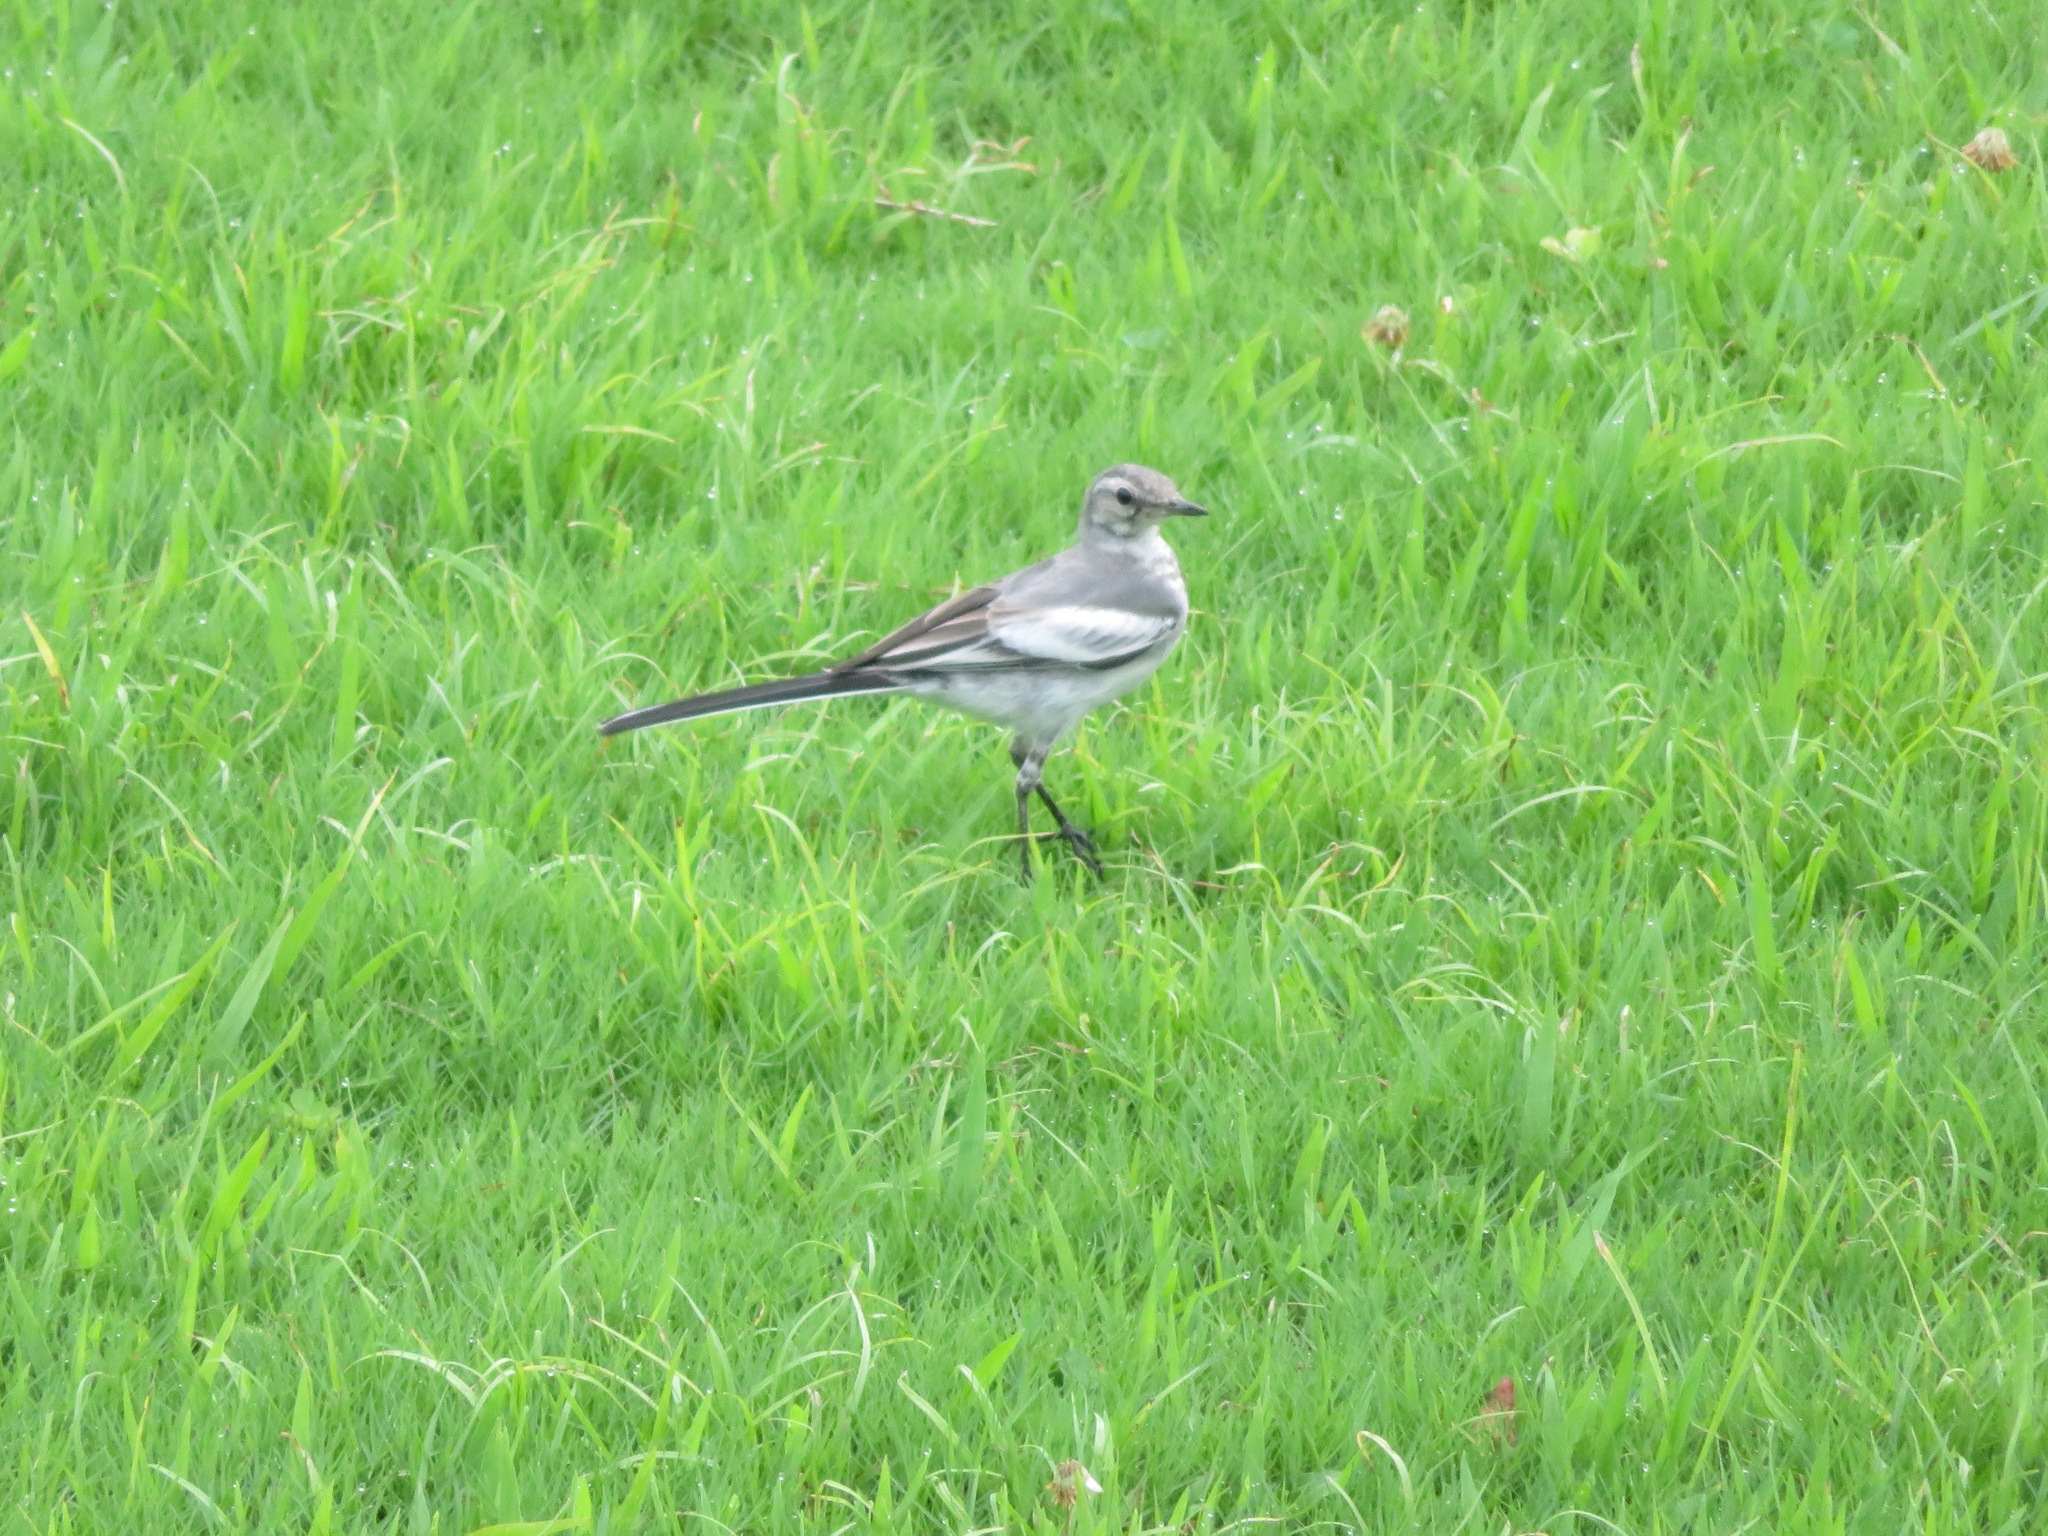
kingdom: Animalia
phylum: Chordata
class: Aves
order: Passeriformes
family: Motacillidae
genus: Motacilla
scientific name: Motacilla alba
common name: White wagtail
